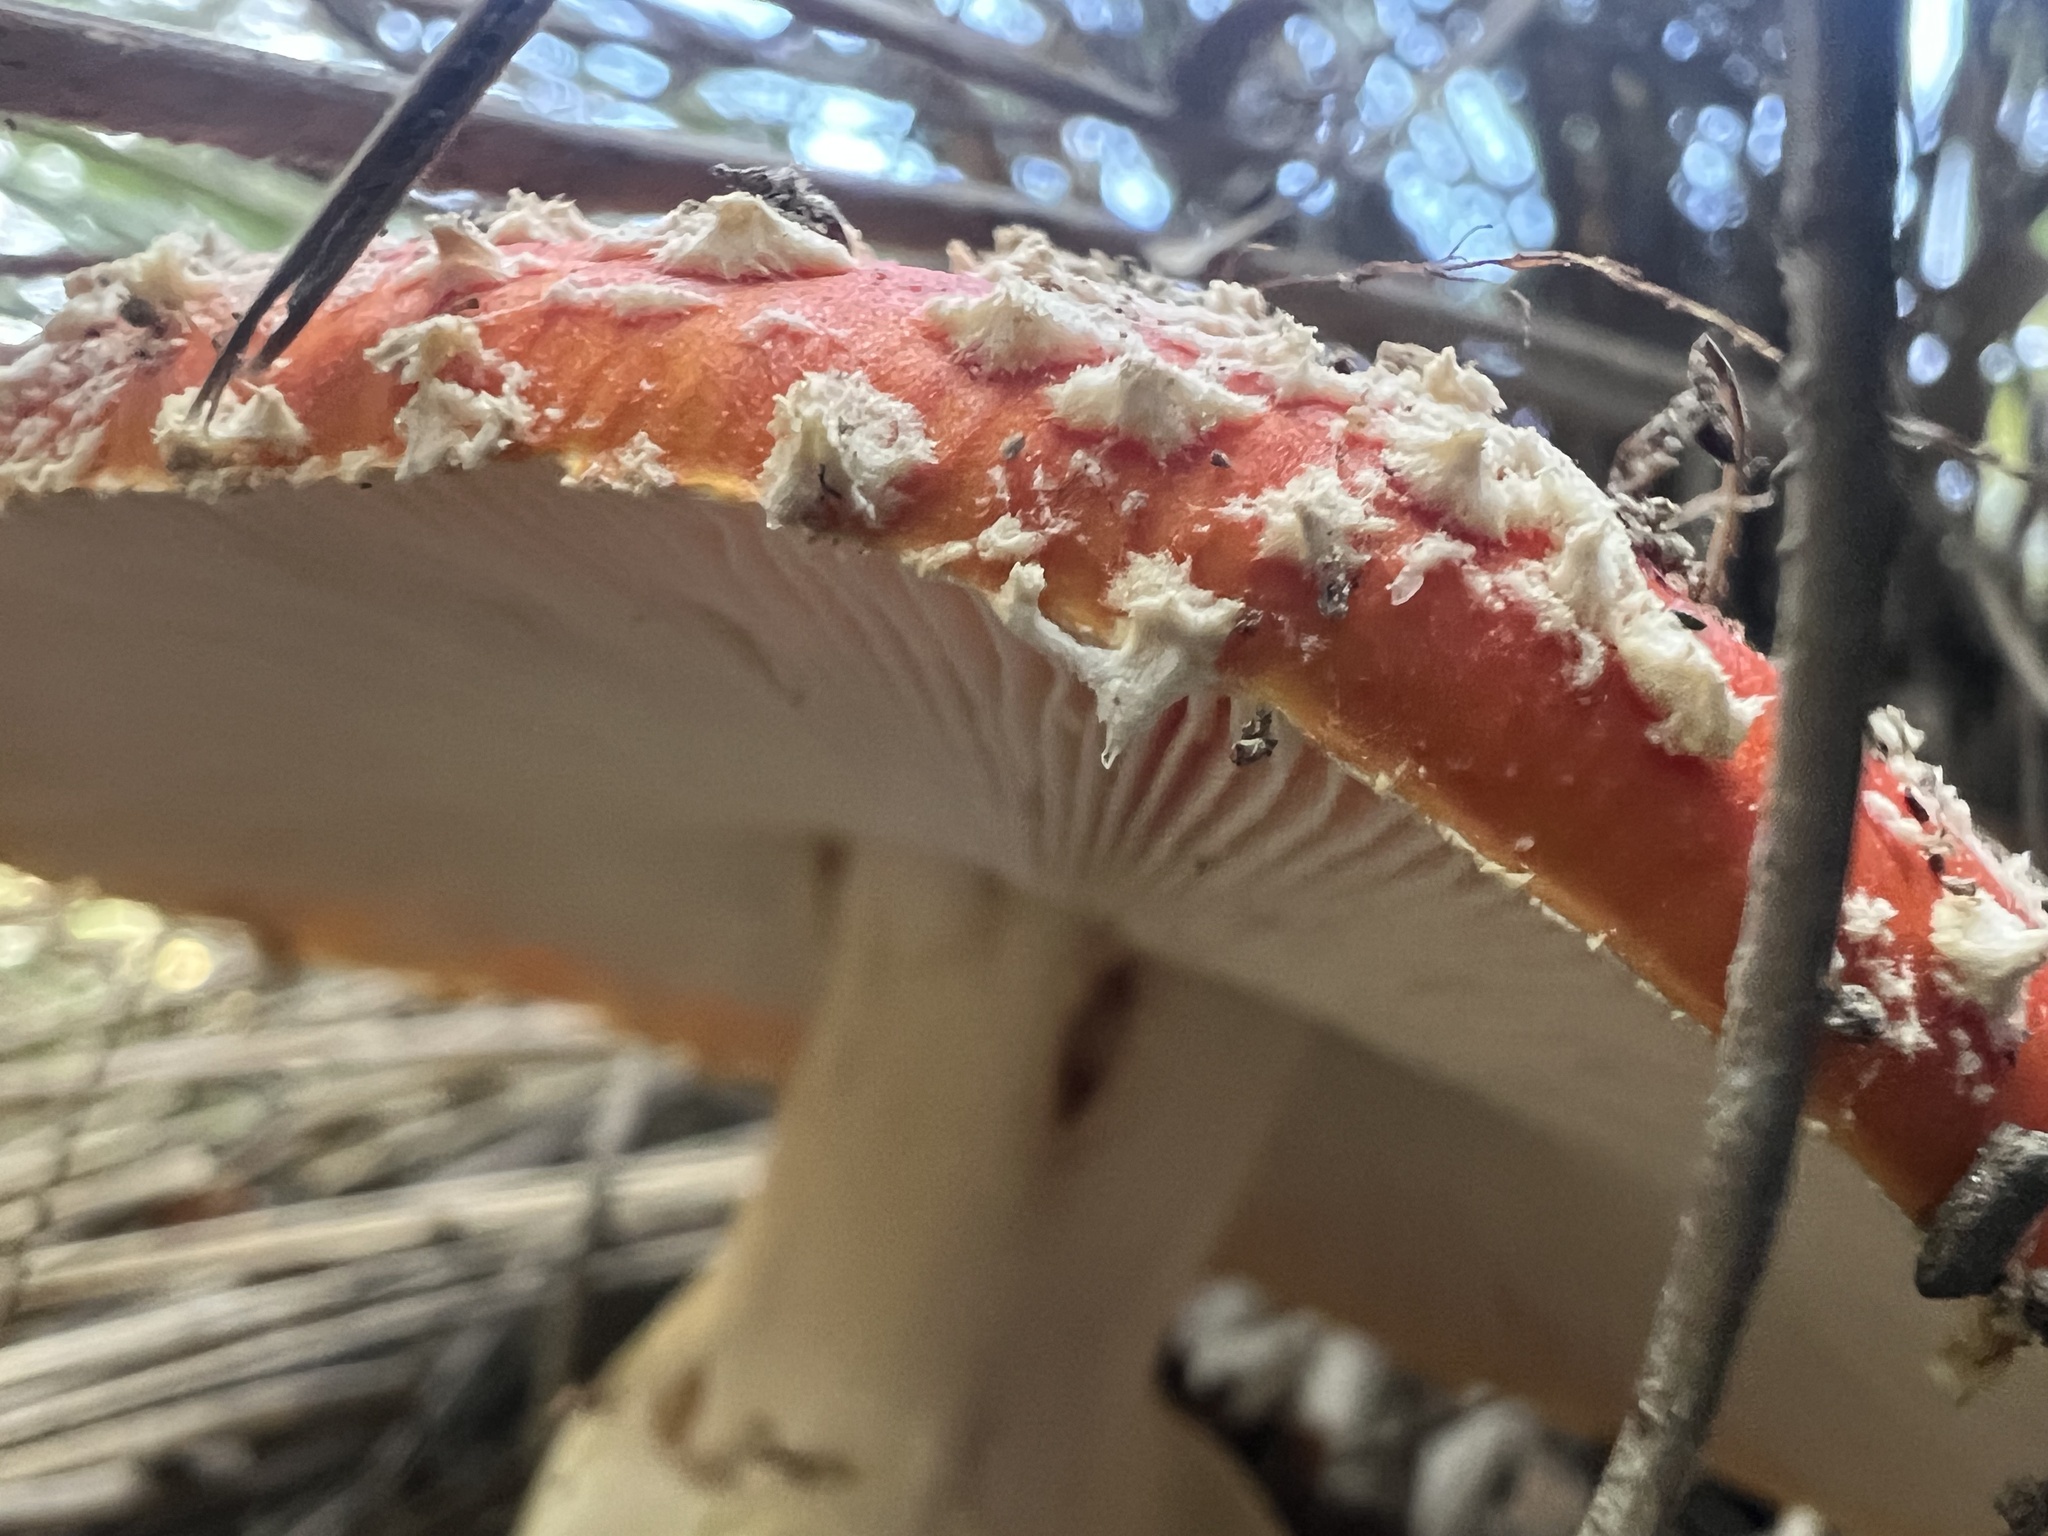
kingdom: Fungi
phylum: Basidiomycota
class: Agaricomycetes
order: Agaricales
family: Amanitaceae
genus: Amanita
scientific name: Amanita muscaria
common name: Fly agaric
